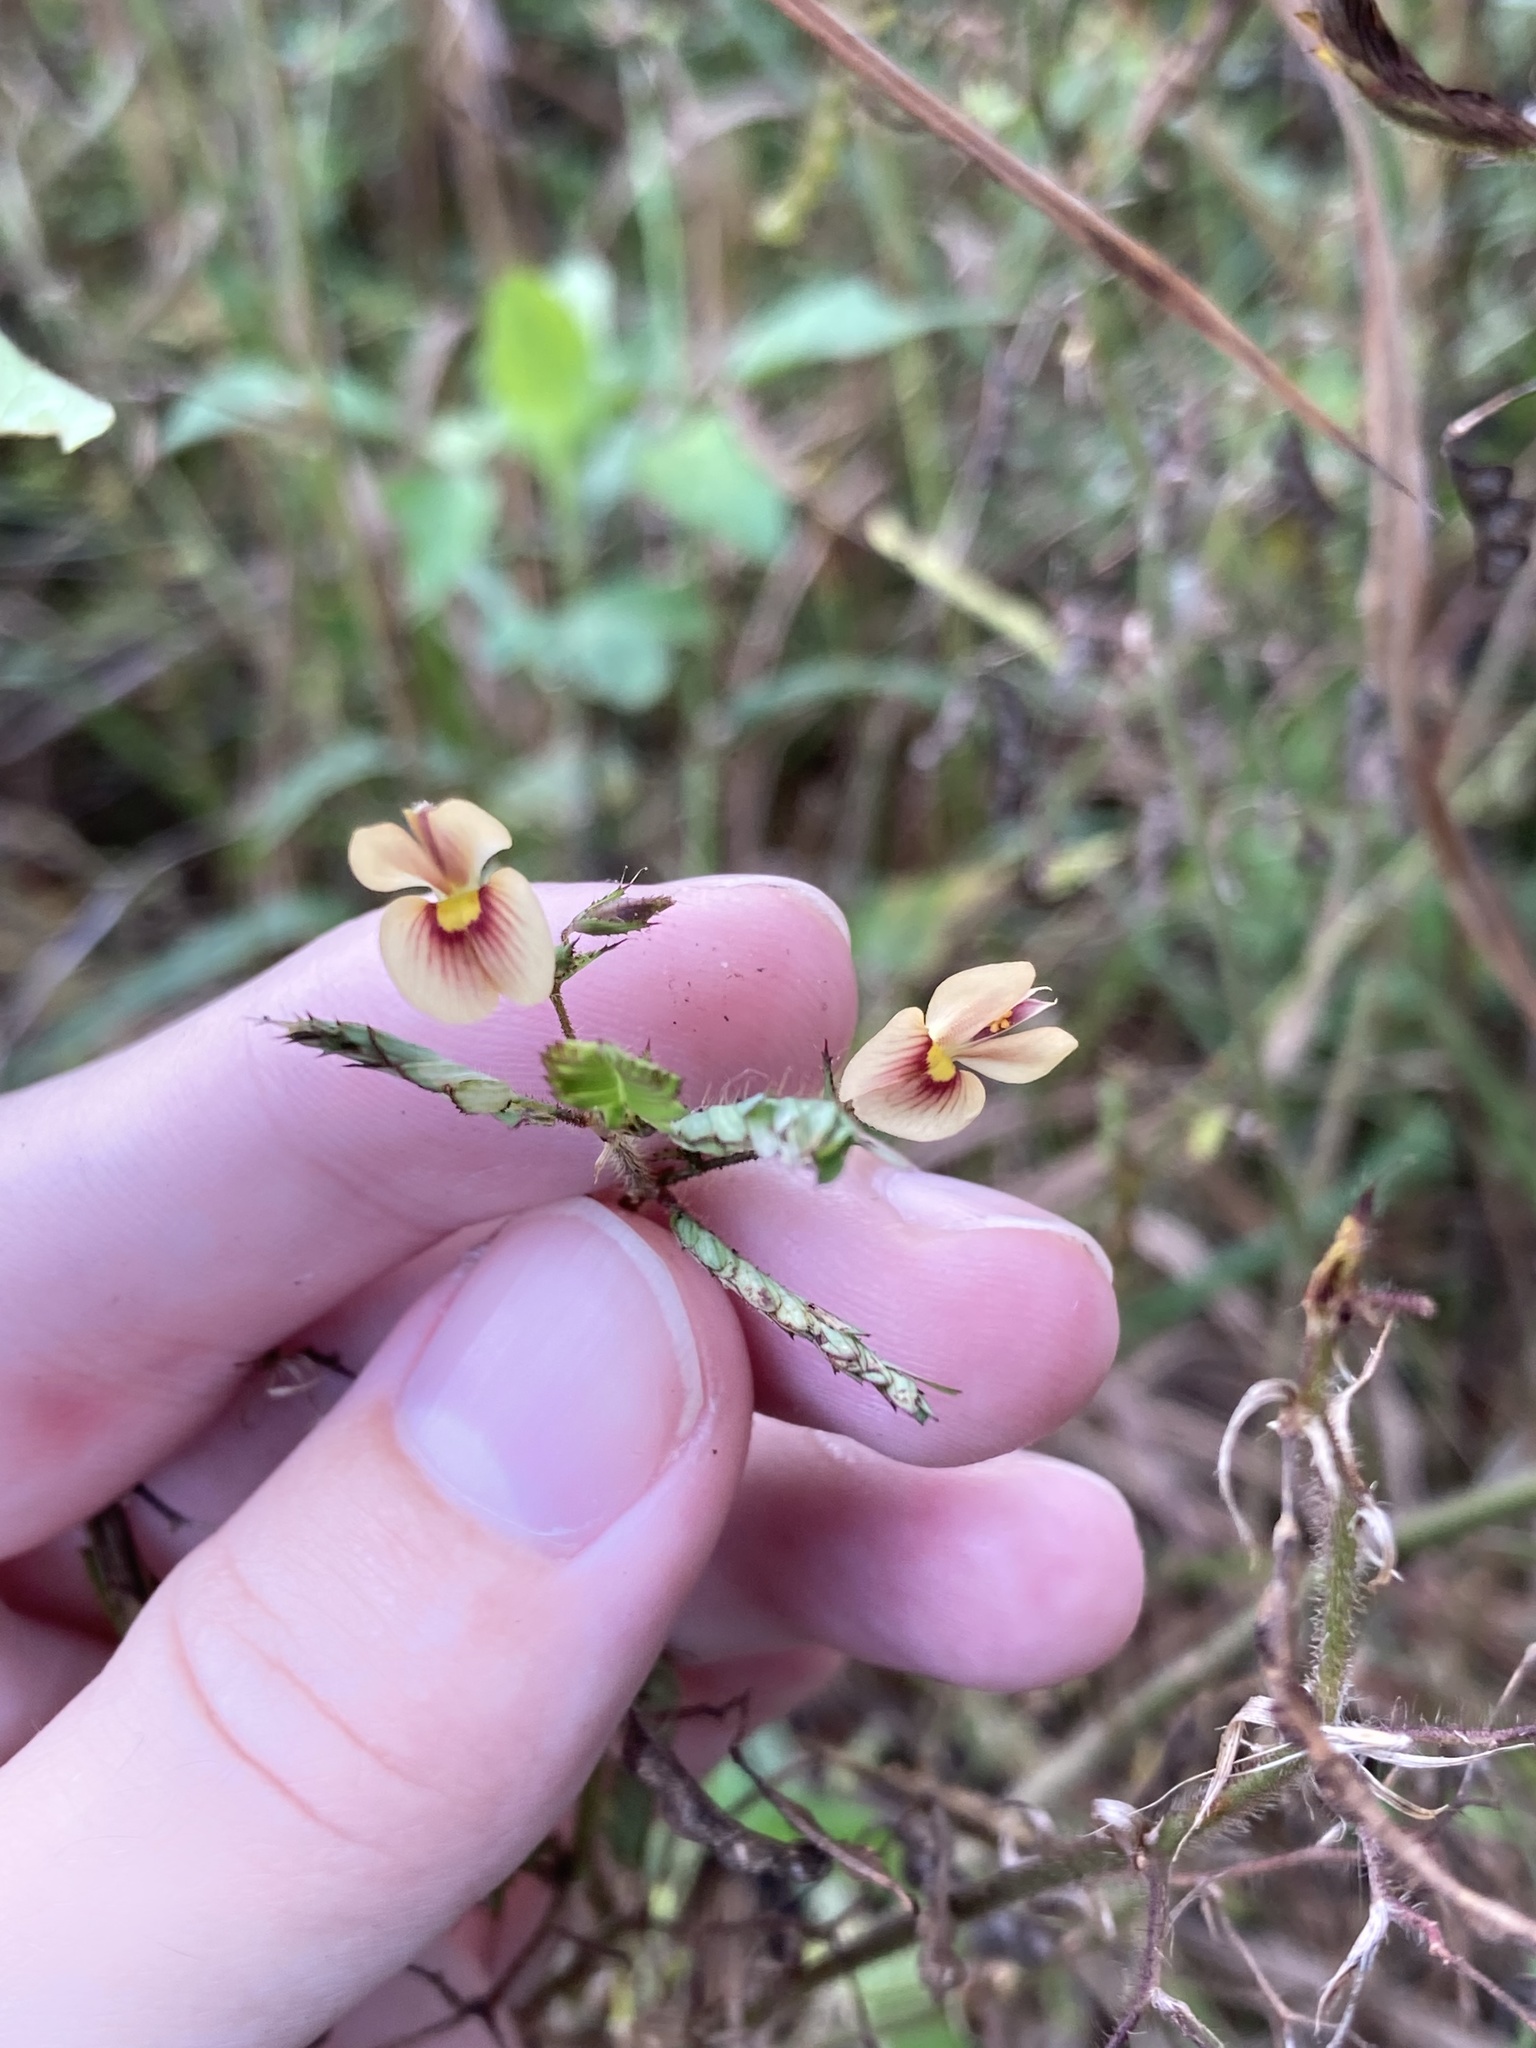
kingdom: Plantae
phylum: Tracheophyta
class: Magnoliopsida
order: Fabales
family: Fabaceae
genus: Aeschynomene
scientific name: Aeschynomene americana
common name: Joint-vetch
